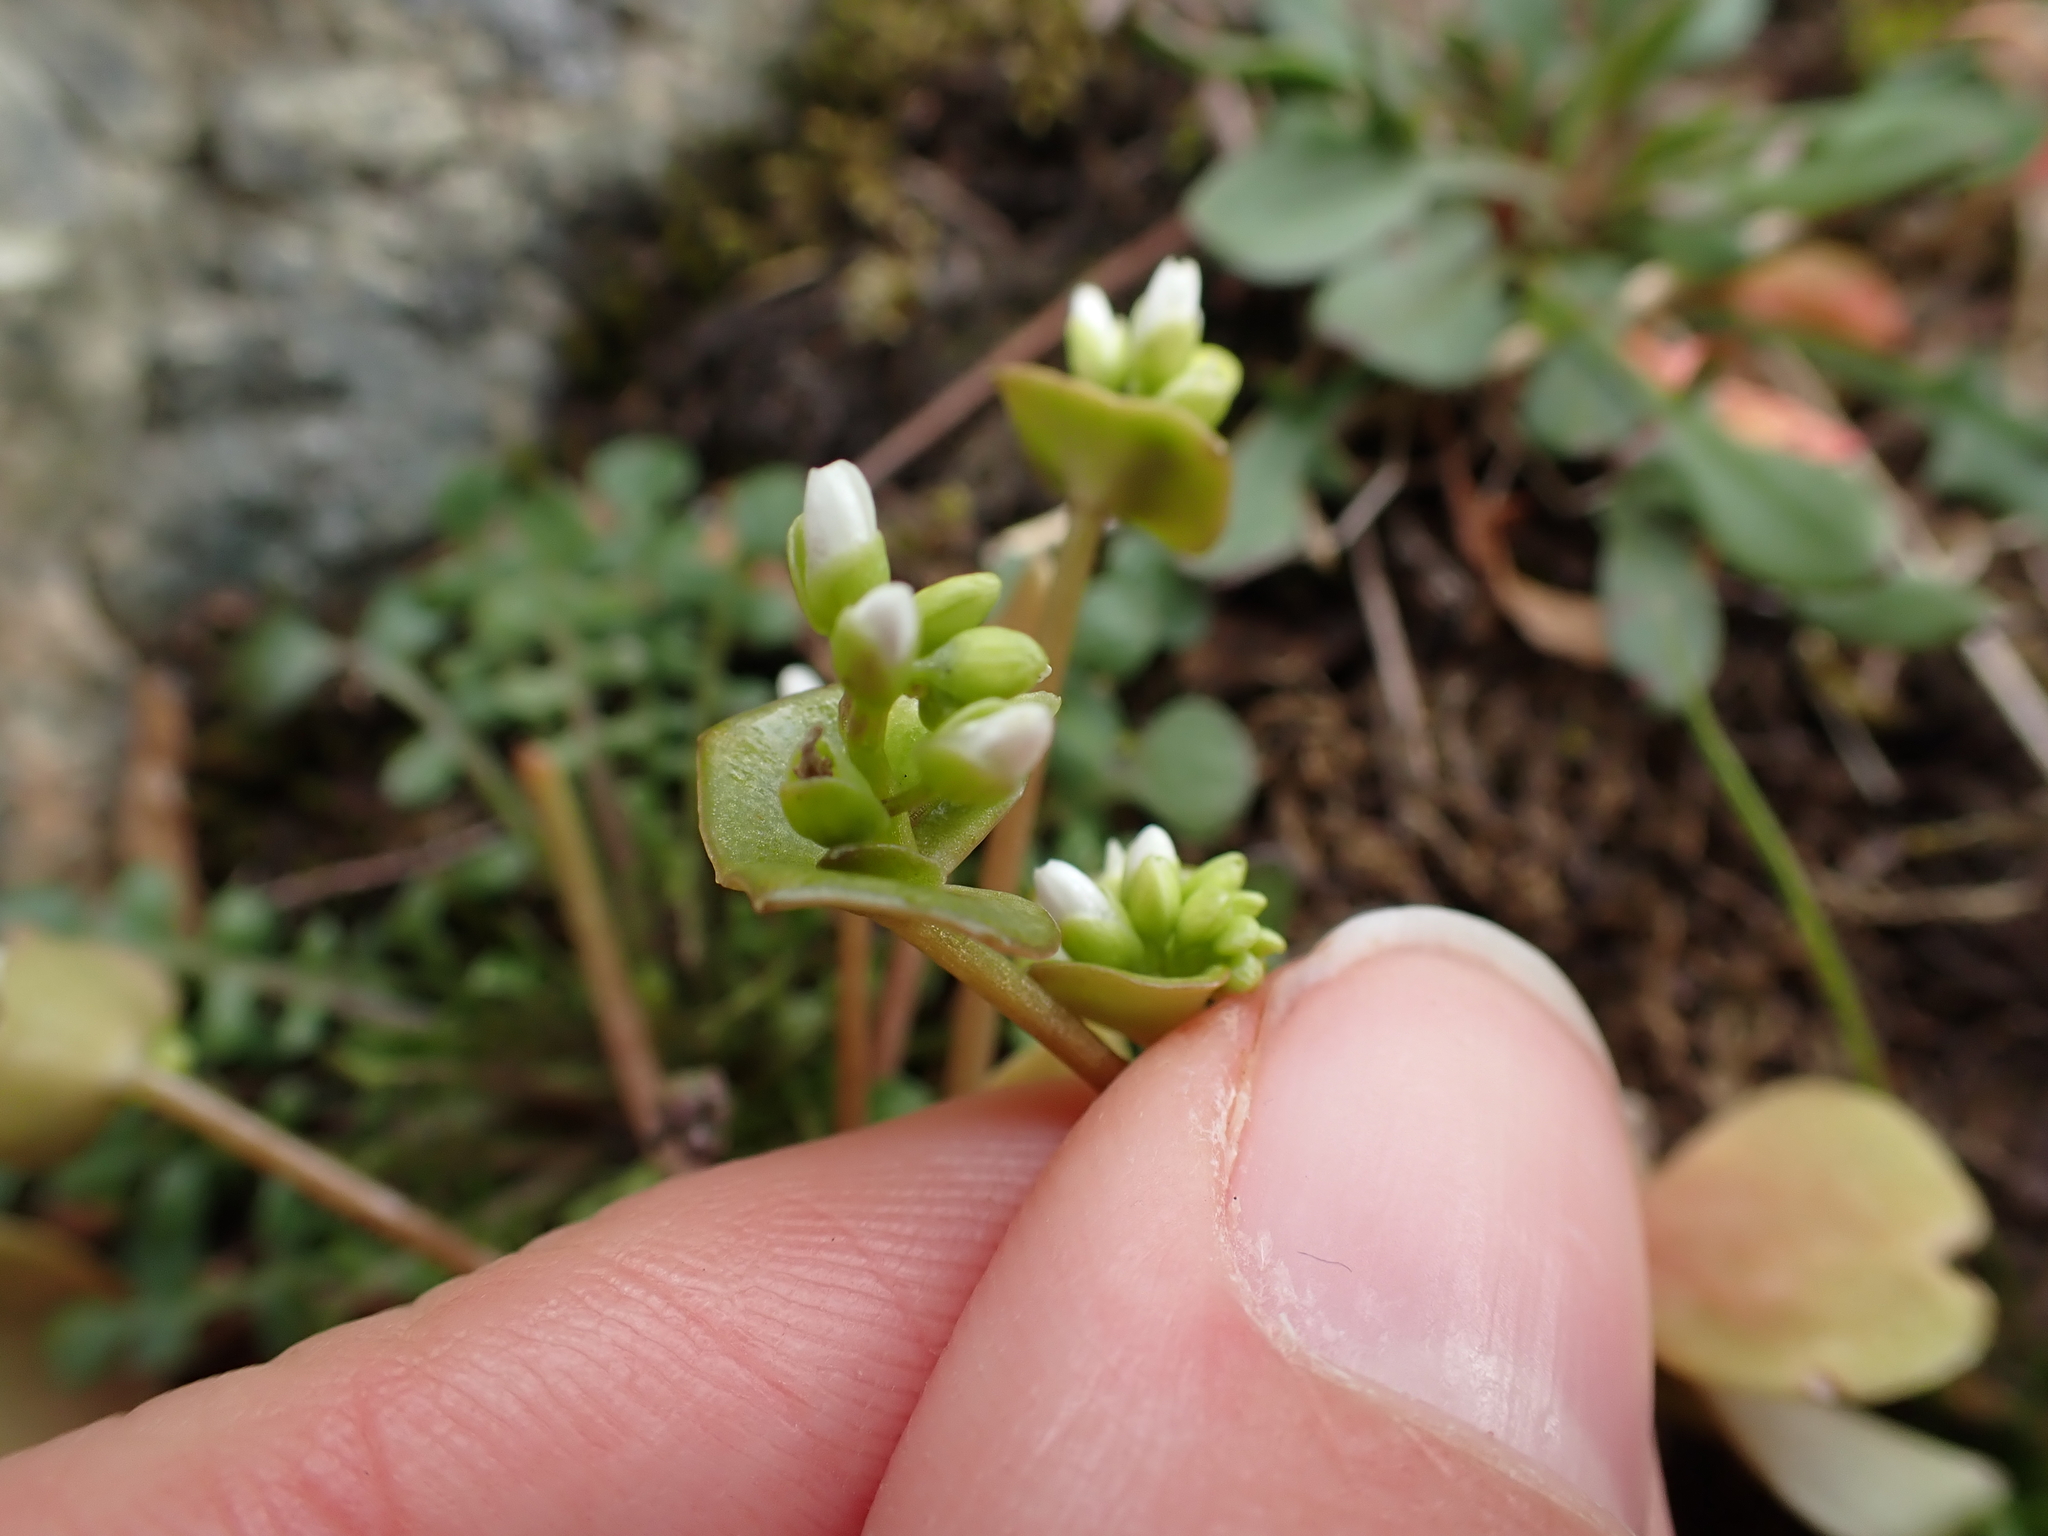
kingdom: Plantae
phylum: Tracheophyta
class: Magnoliopsida
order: Caryophyllales
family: Montiaceae
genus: Claytonia
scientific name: Claytonia rubra
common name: Erubescent miner's-lettuce
